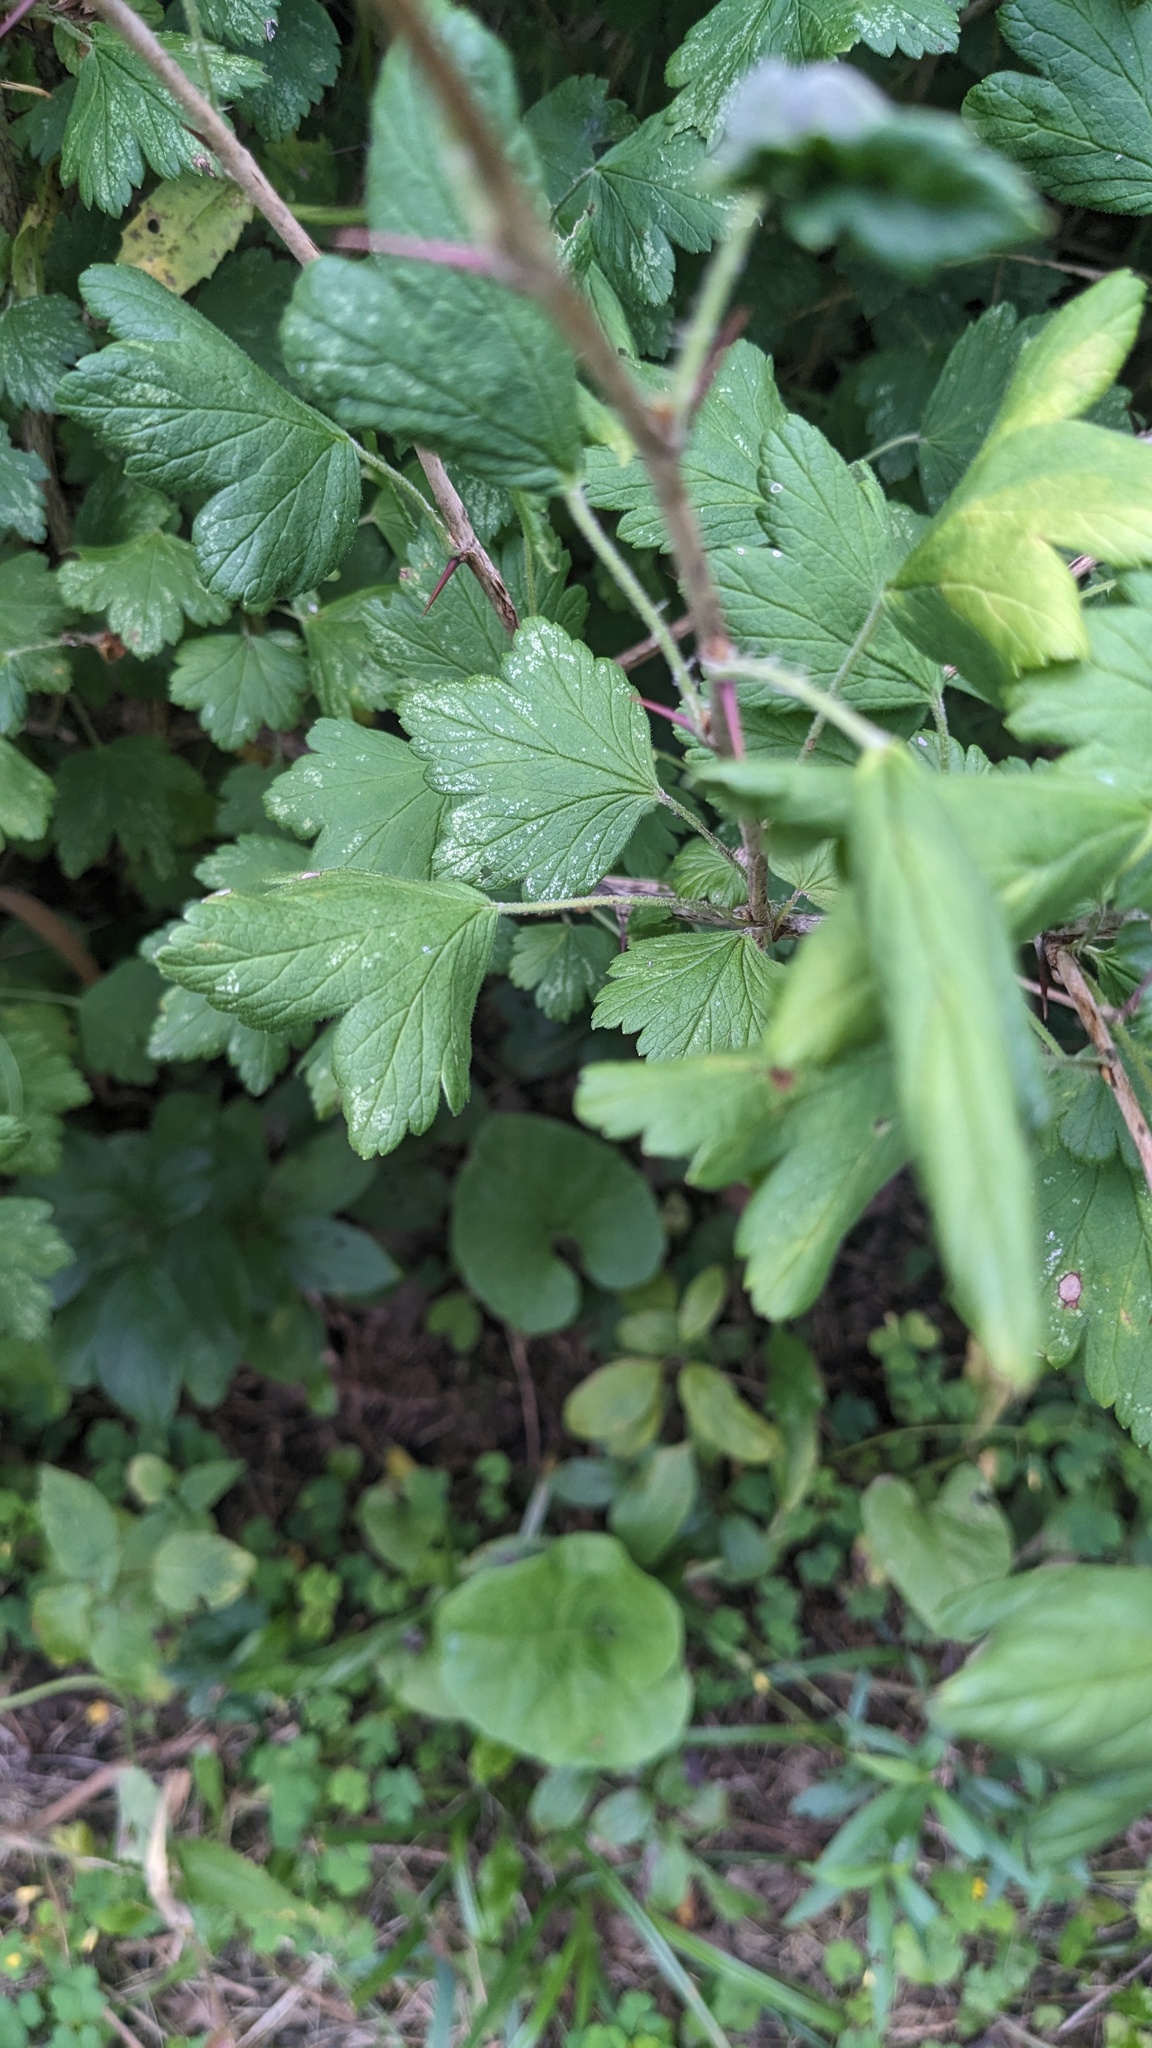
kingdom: Plantae
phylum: Tracheophyta
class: Magnoliopsida
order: Saxifragales
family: Grossulariaceae
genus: Ribes
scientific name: Ribes missouriense
